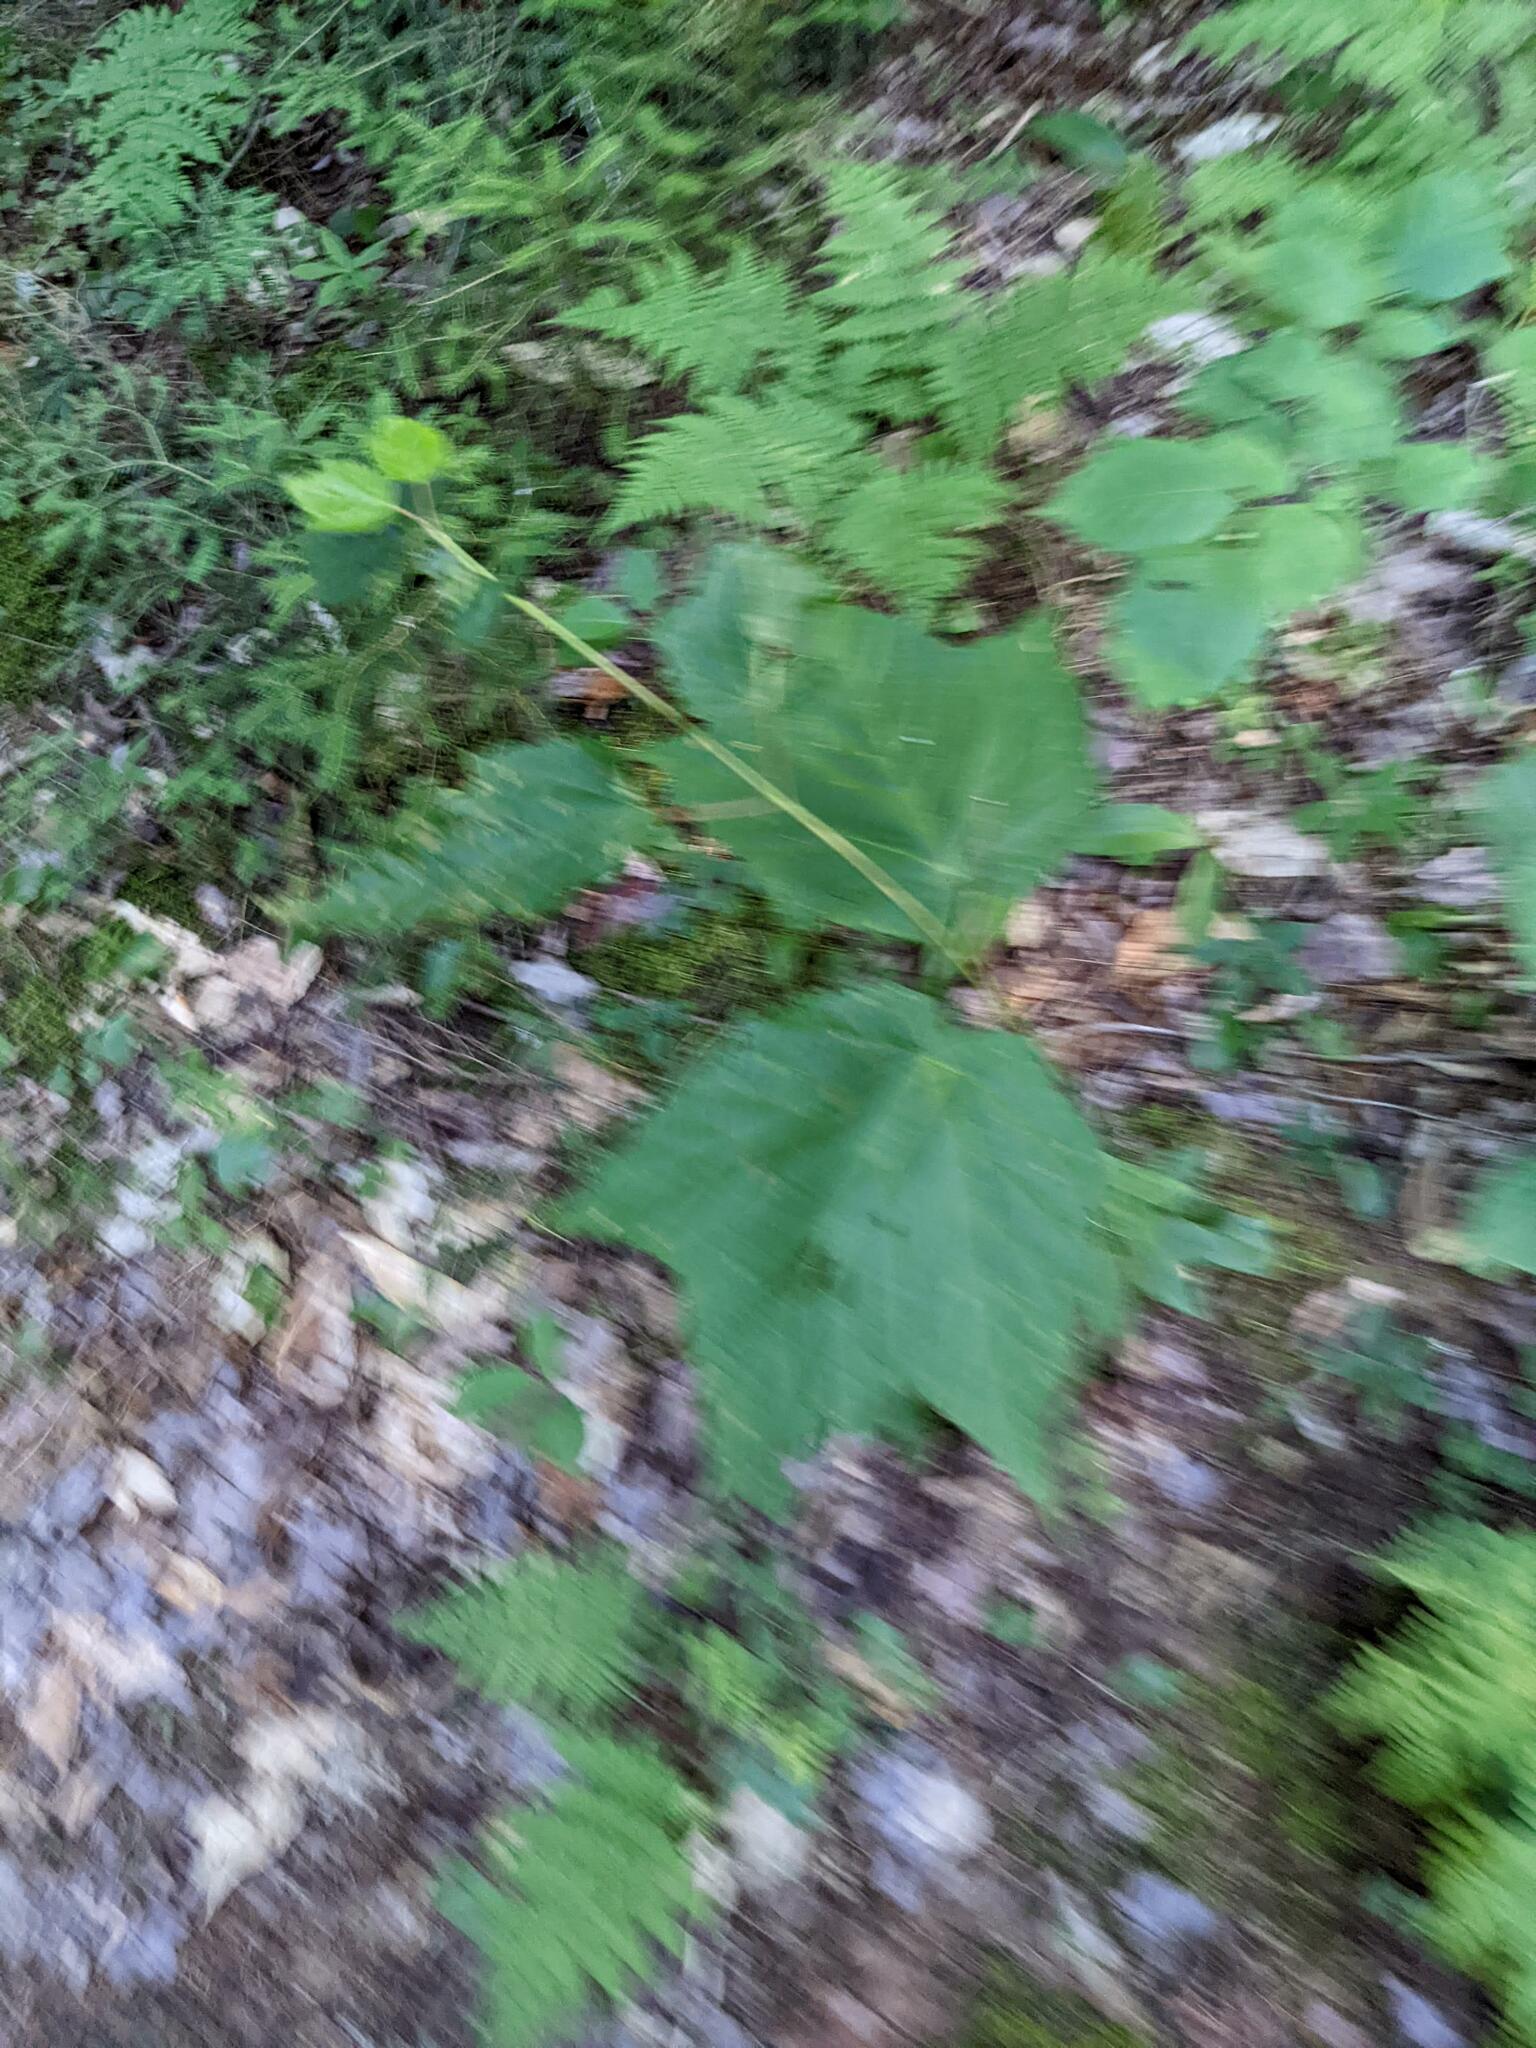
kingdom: Plantae
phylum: Tracheophyta
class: Magnoliopsida
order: Sapindales
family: Sapindaceae
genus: Acer
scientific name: Acer pensylvanicum
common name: Moosewood
